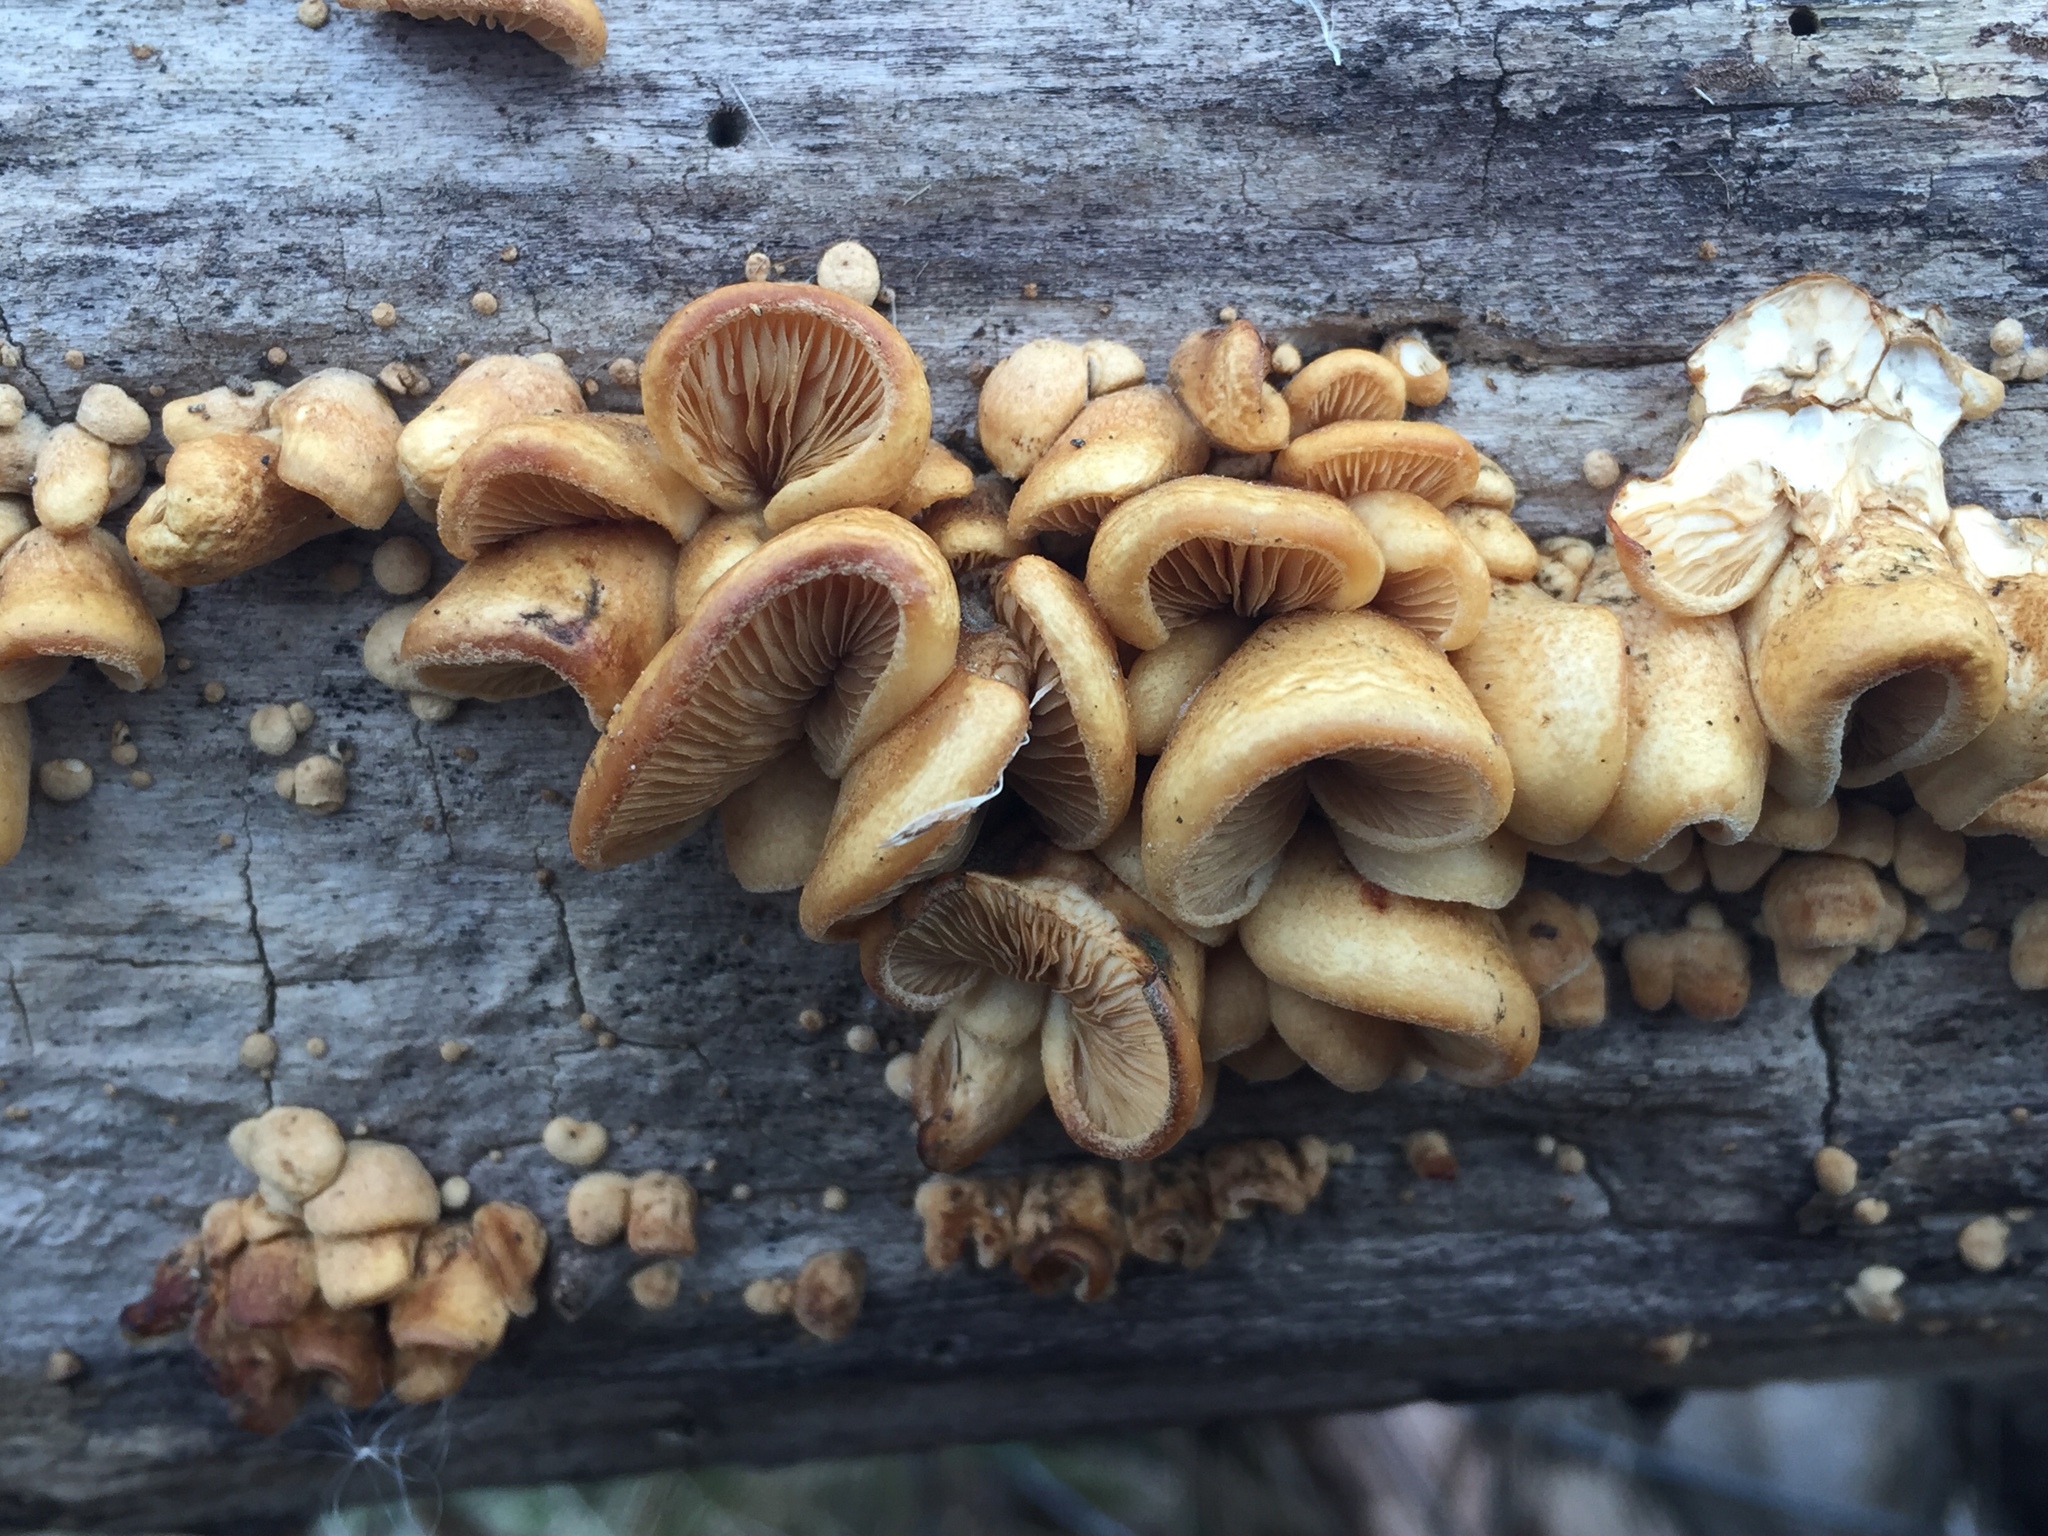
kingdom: Fungi
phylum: Basidiomycota
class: Agaricomycetes
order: Agaricales
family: Mycenaceae
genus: Panellus
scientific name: Panellus stipticus
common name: Bitter oysterling
